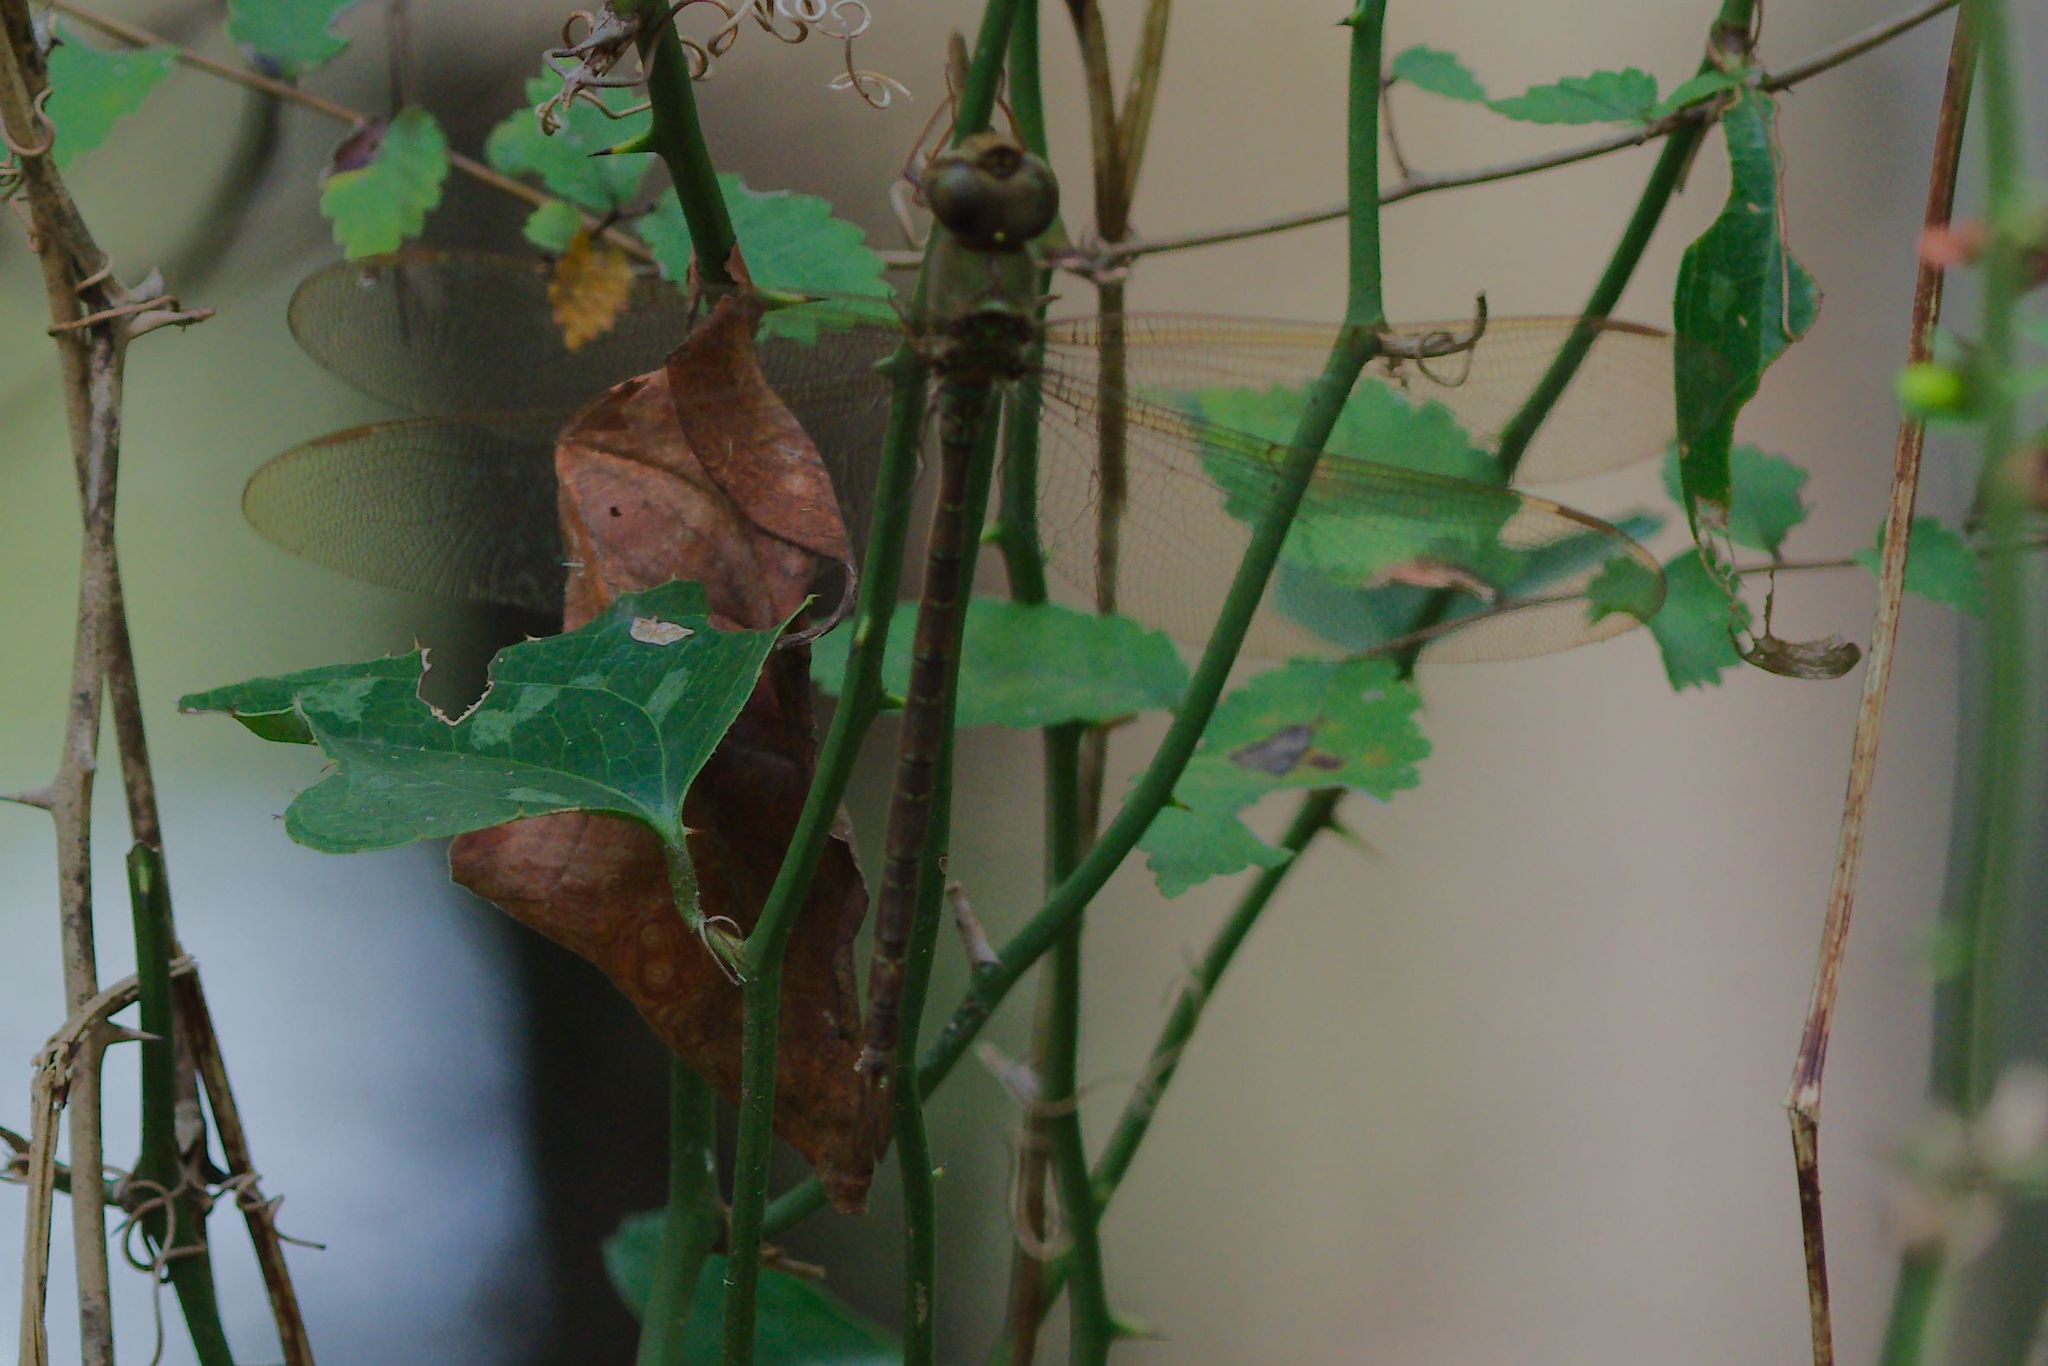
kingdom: Animalia
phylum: Arthropoda
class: Insecta
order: Odonata
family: Aeshnidae
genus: Gynacantha
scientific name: Gynacantha nervosa
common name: Twilight darner
